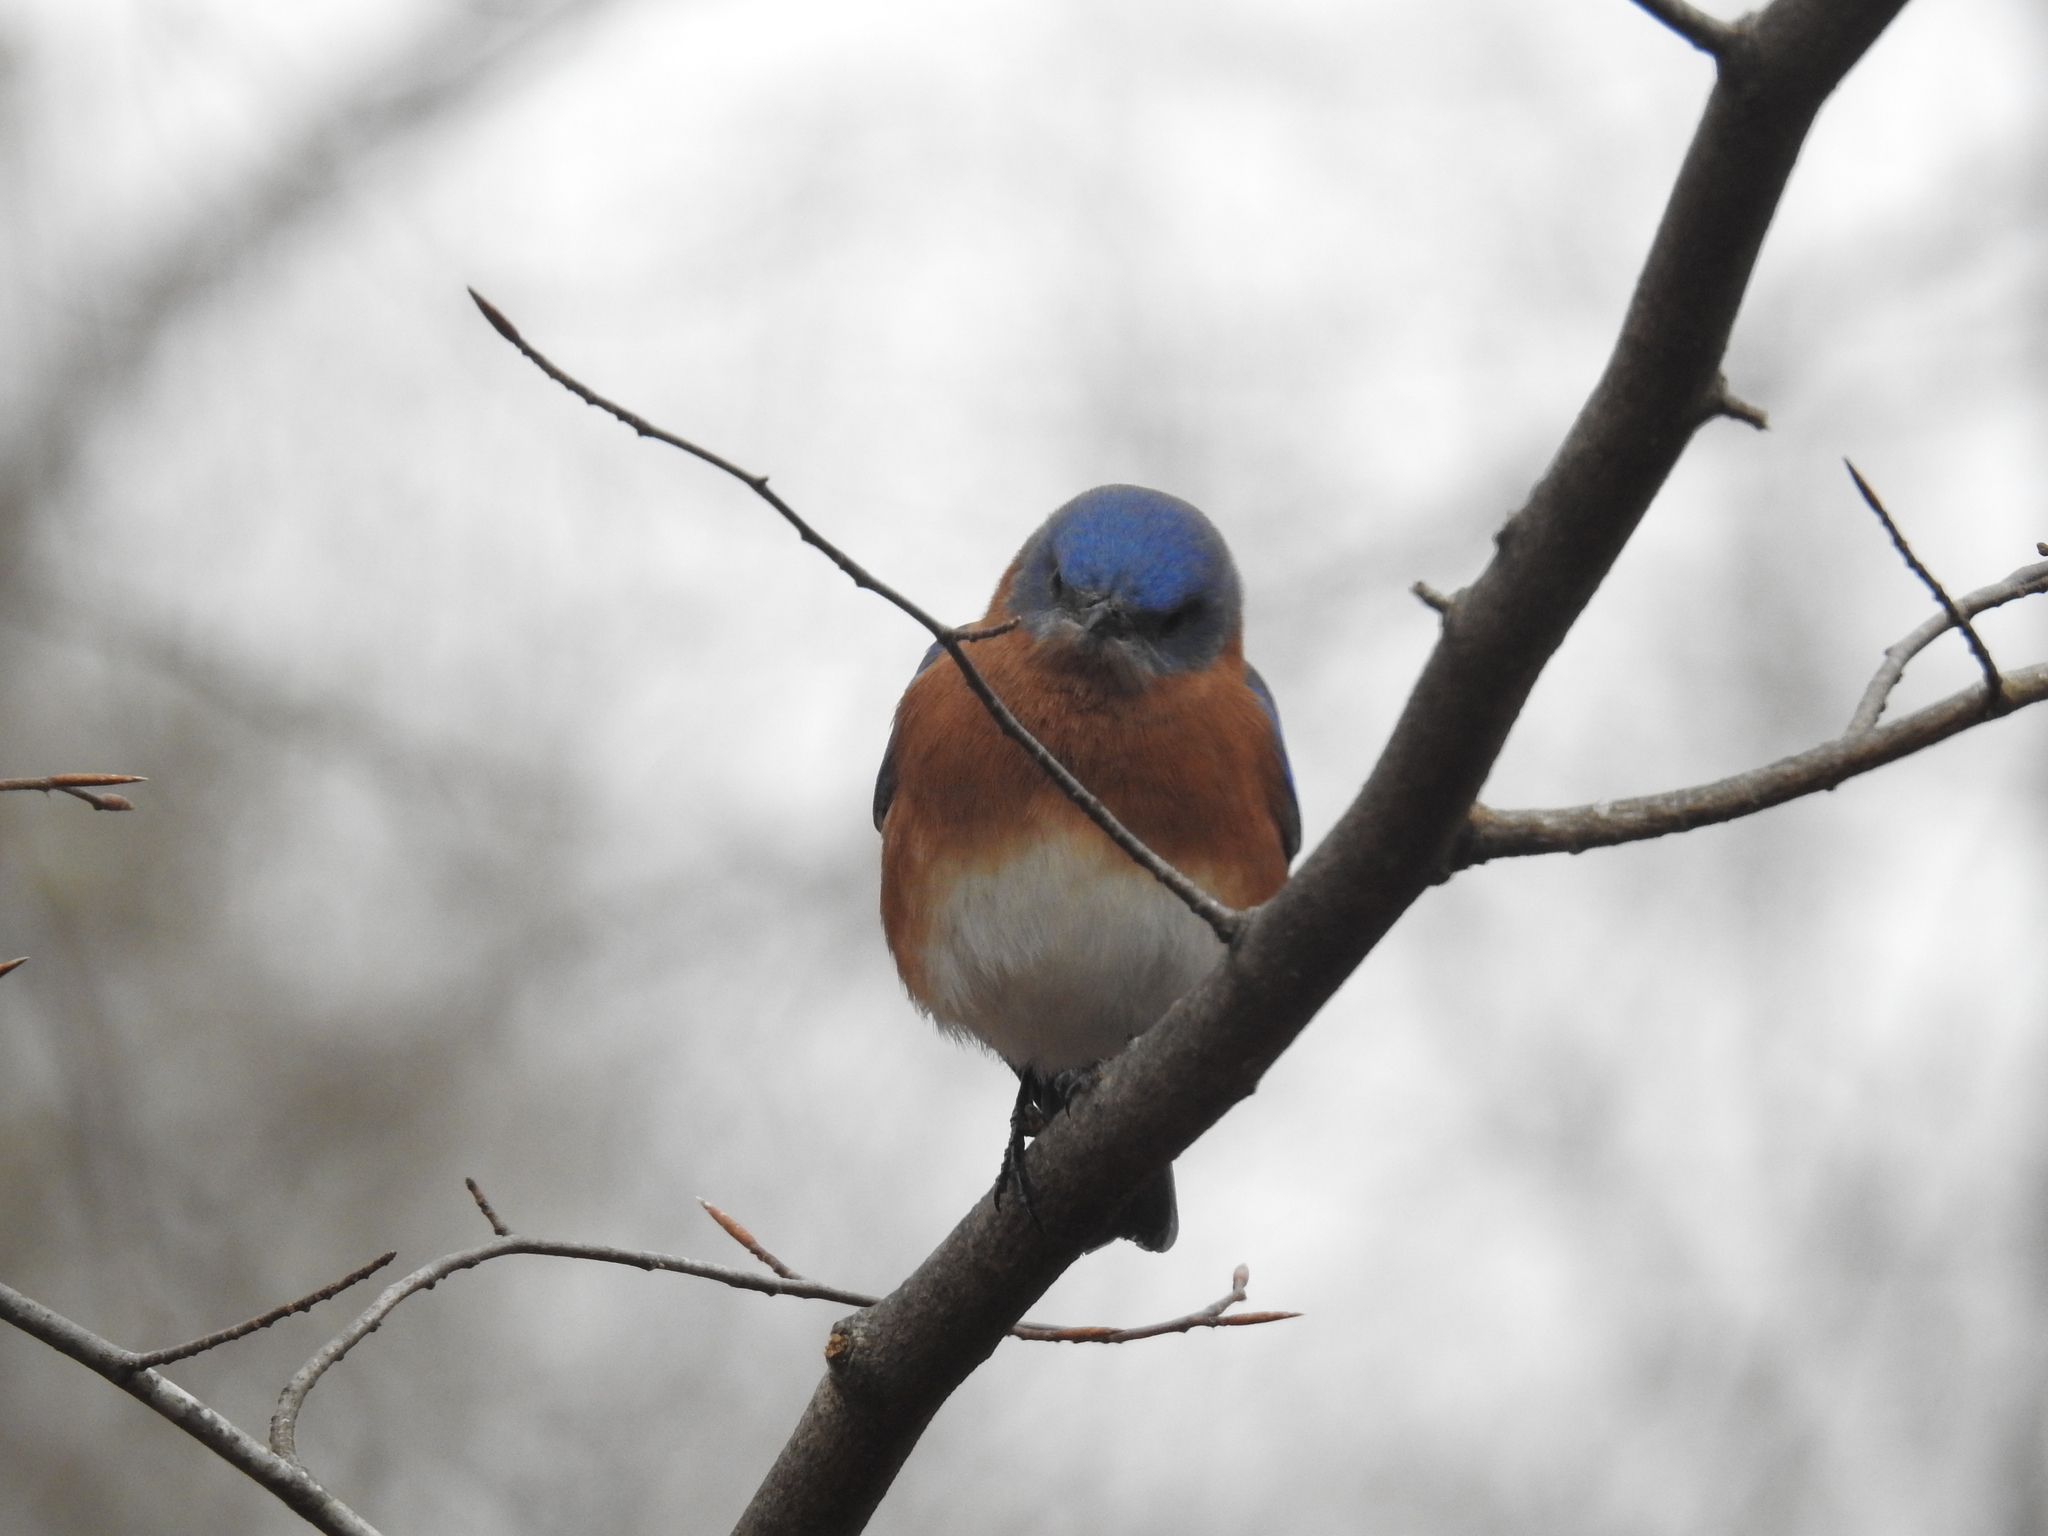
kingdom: Animalia
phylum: Chordata
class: Aves
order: Passeriformes
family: Turdidae
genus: Sialia
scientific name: Sialia sialis
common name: Eastern bluebird
